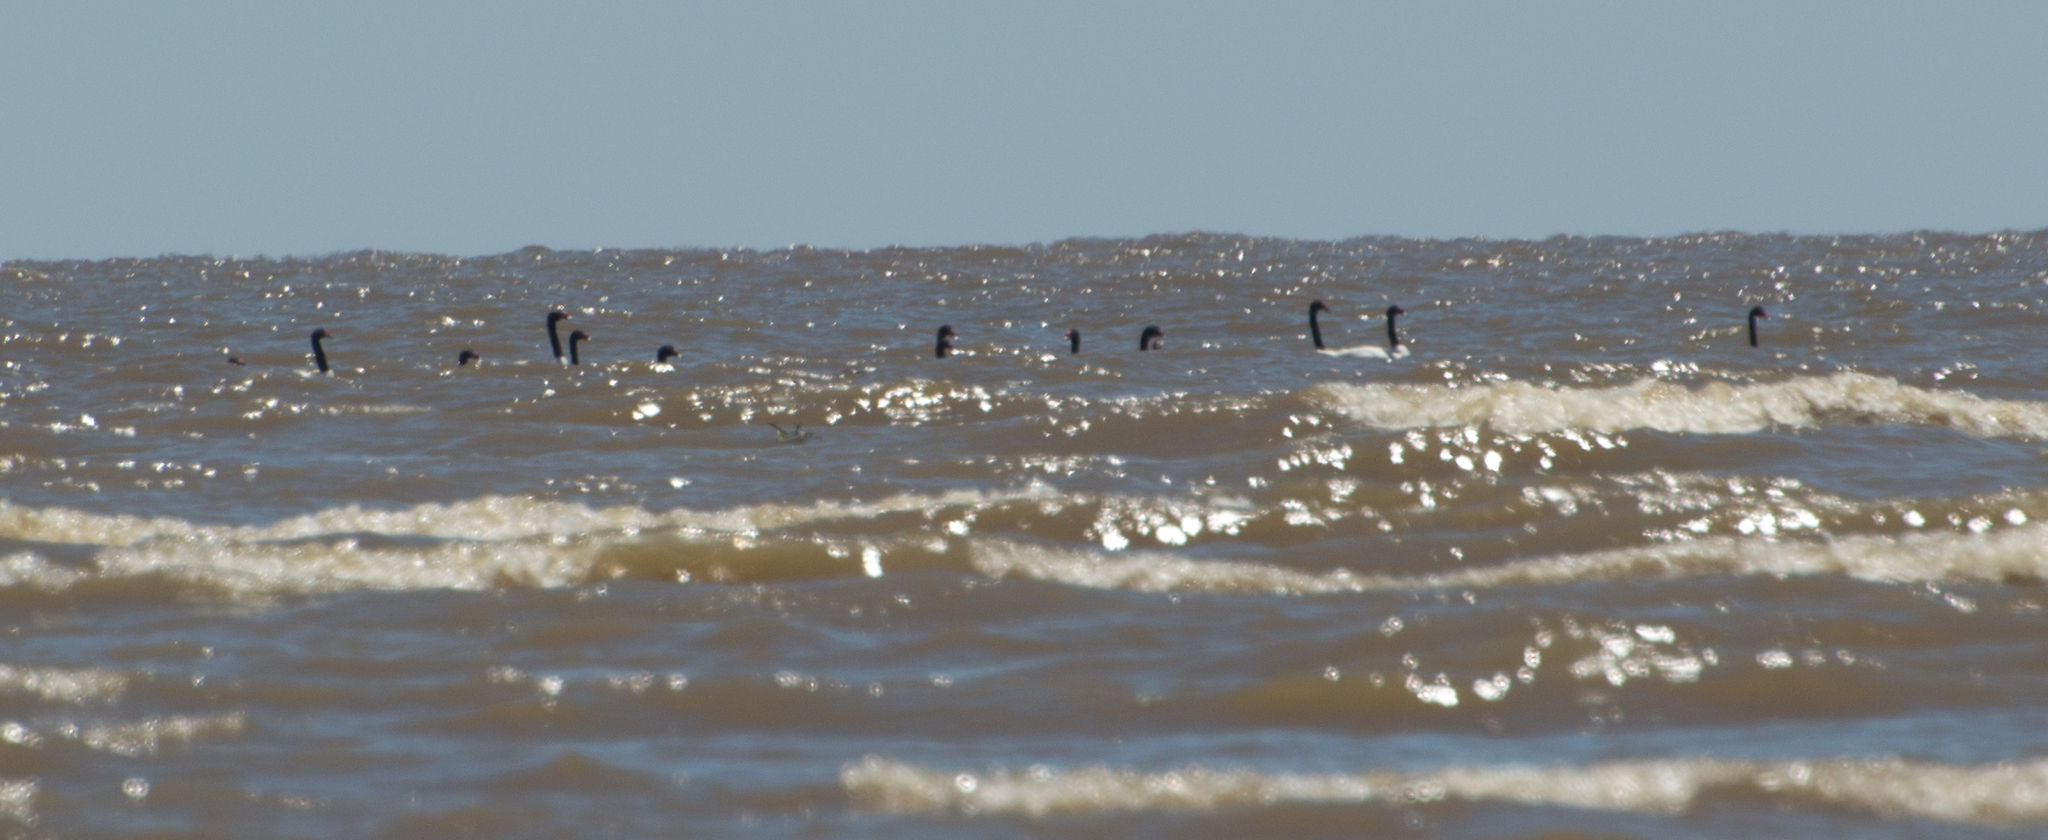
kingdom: Animalia
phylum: Chordata
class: Aves
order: Anseriformes
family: Anatidae
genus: Cygnus
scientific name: Cygnus melancoryphus
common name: Black-necked swan
